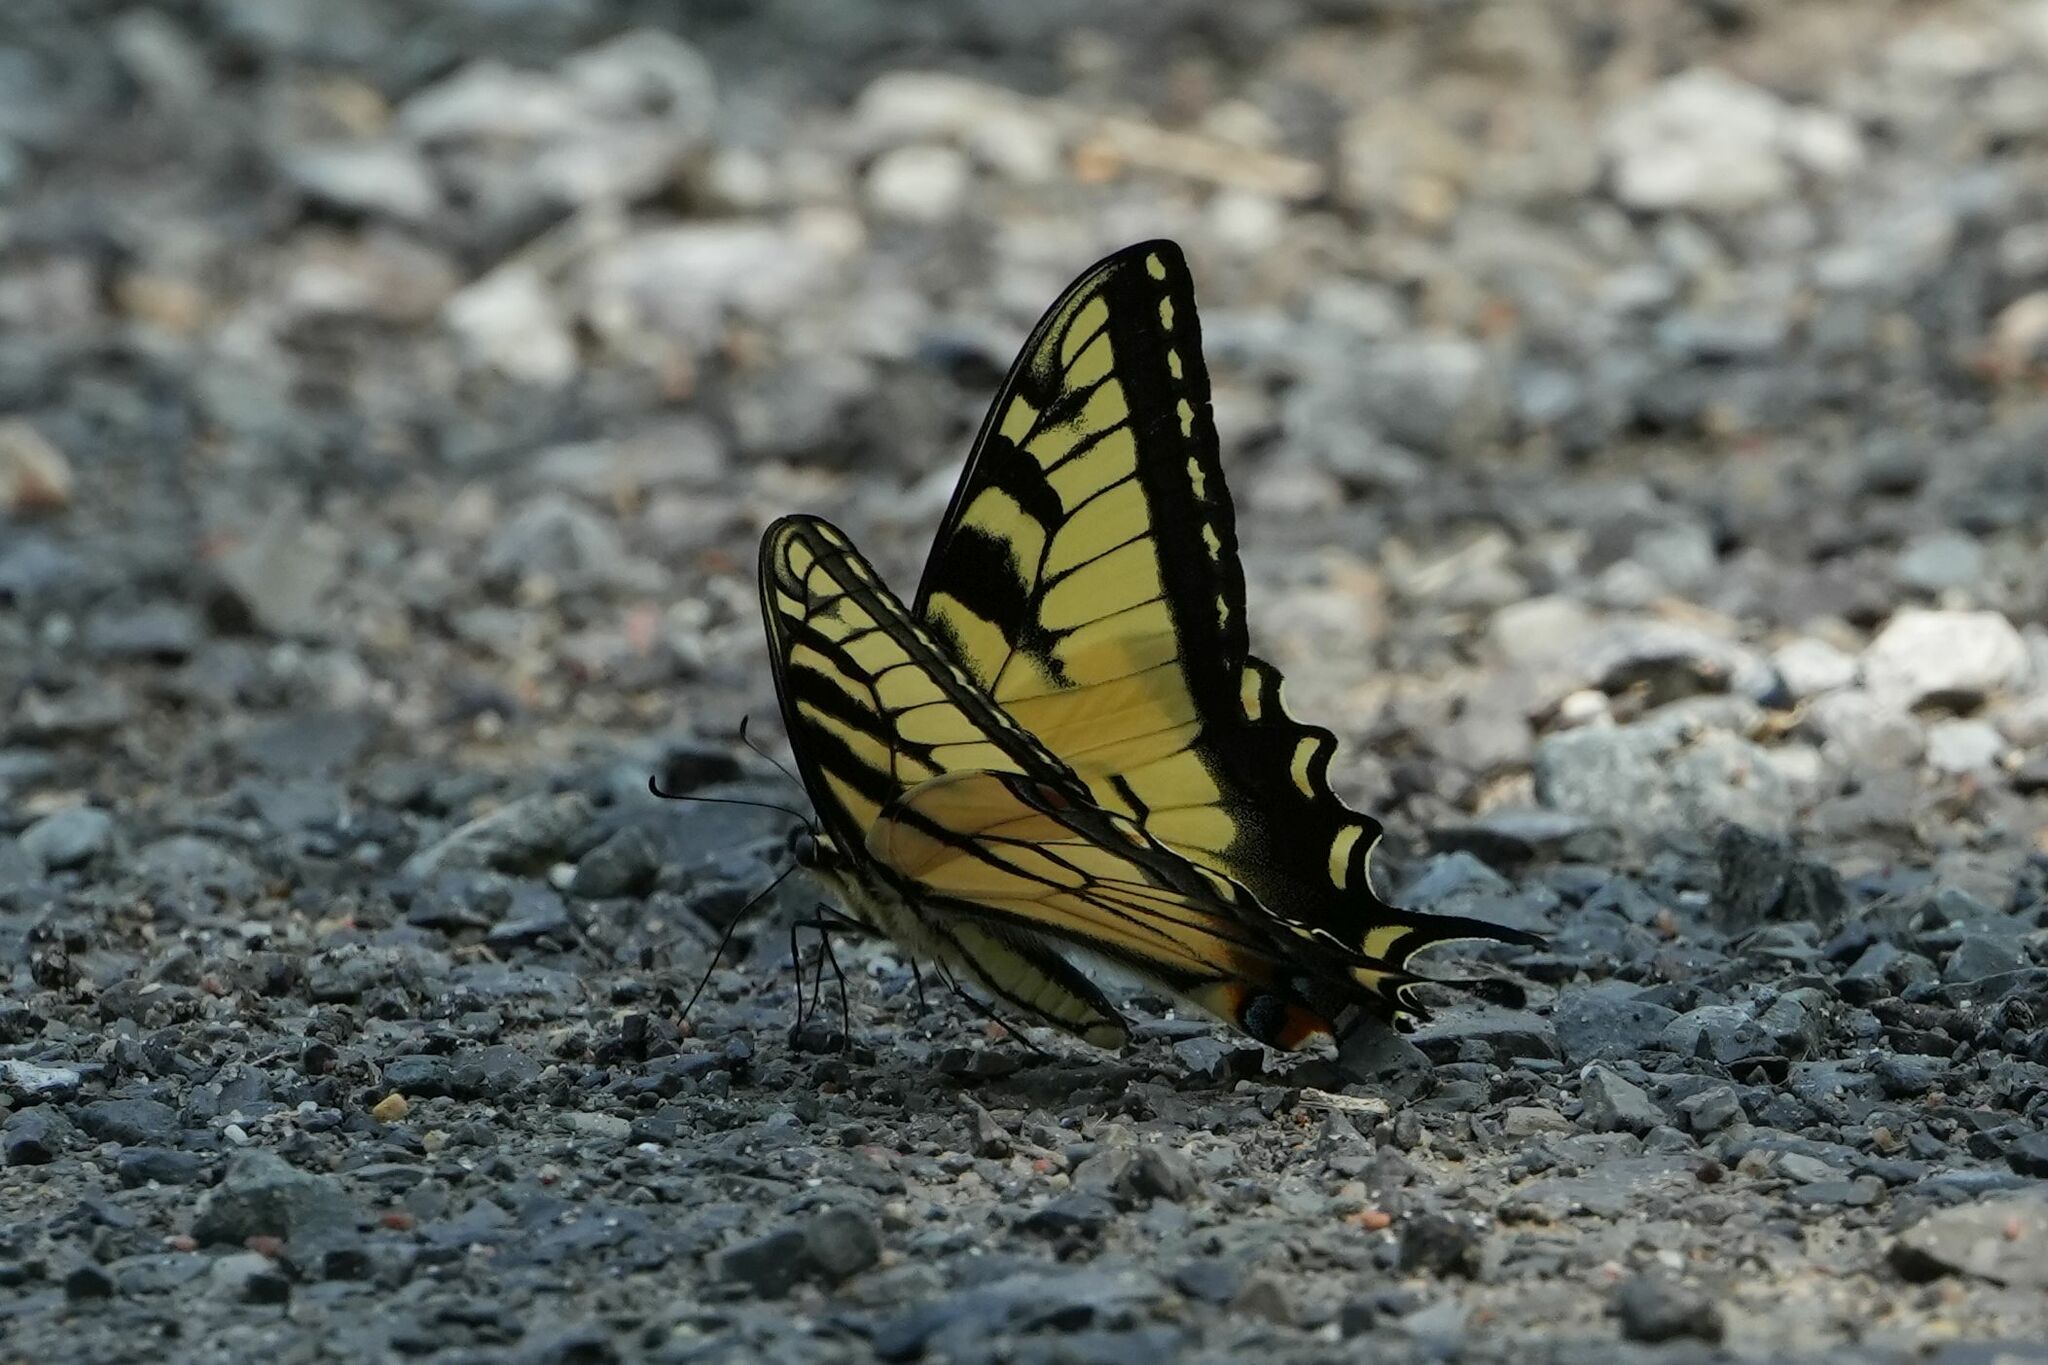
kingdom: Animalia
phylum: Arthropoda
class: Insecta
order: Lepidoptera
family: Papilionidae
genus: Papilio
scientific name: Papilio
